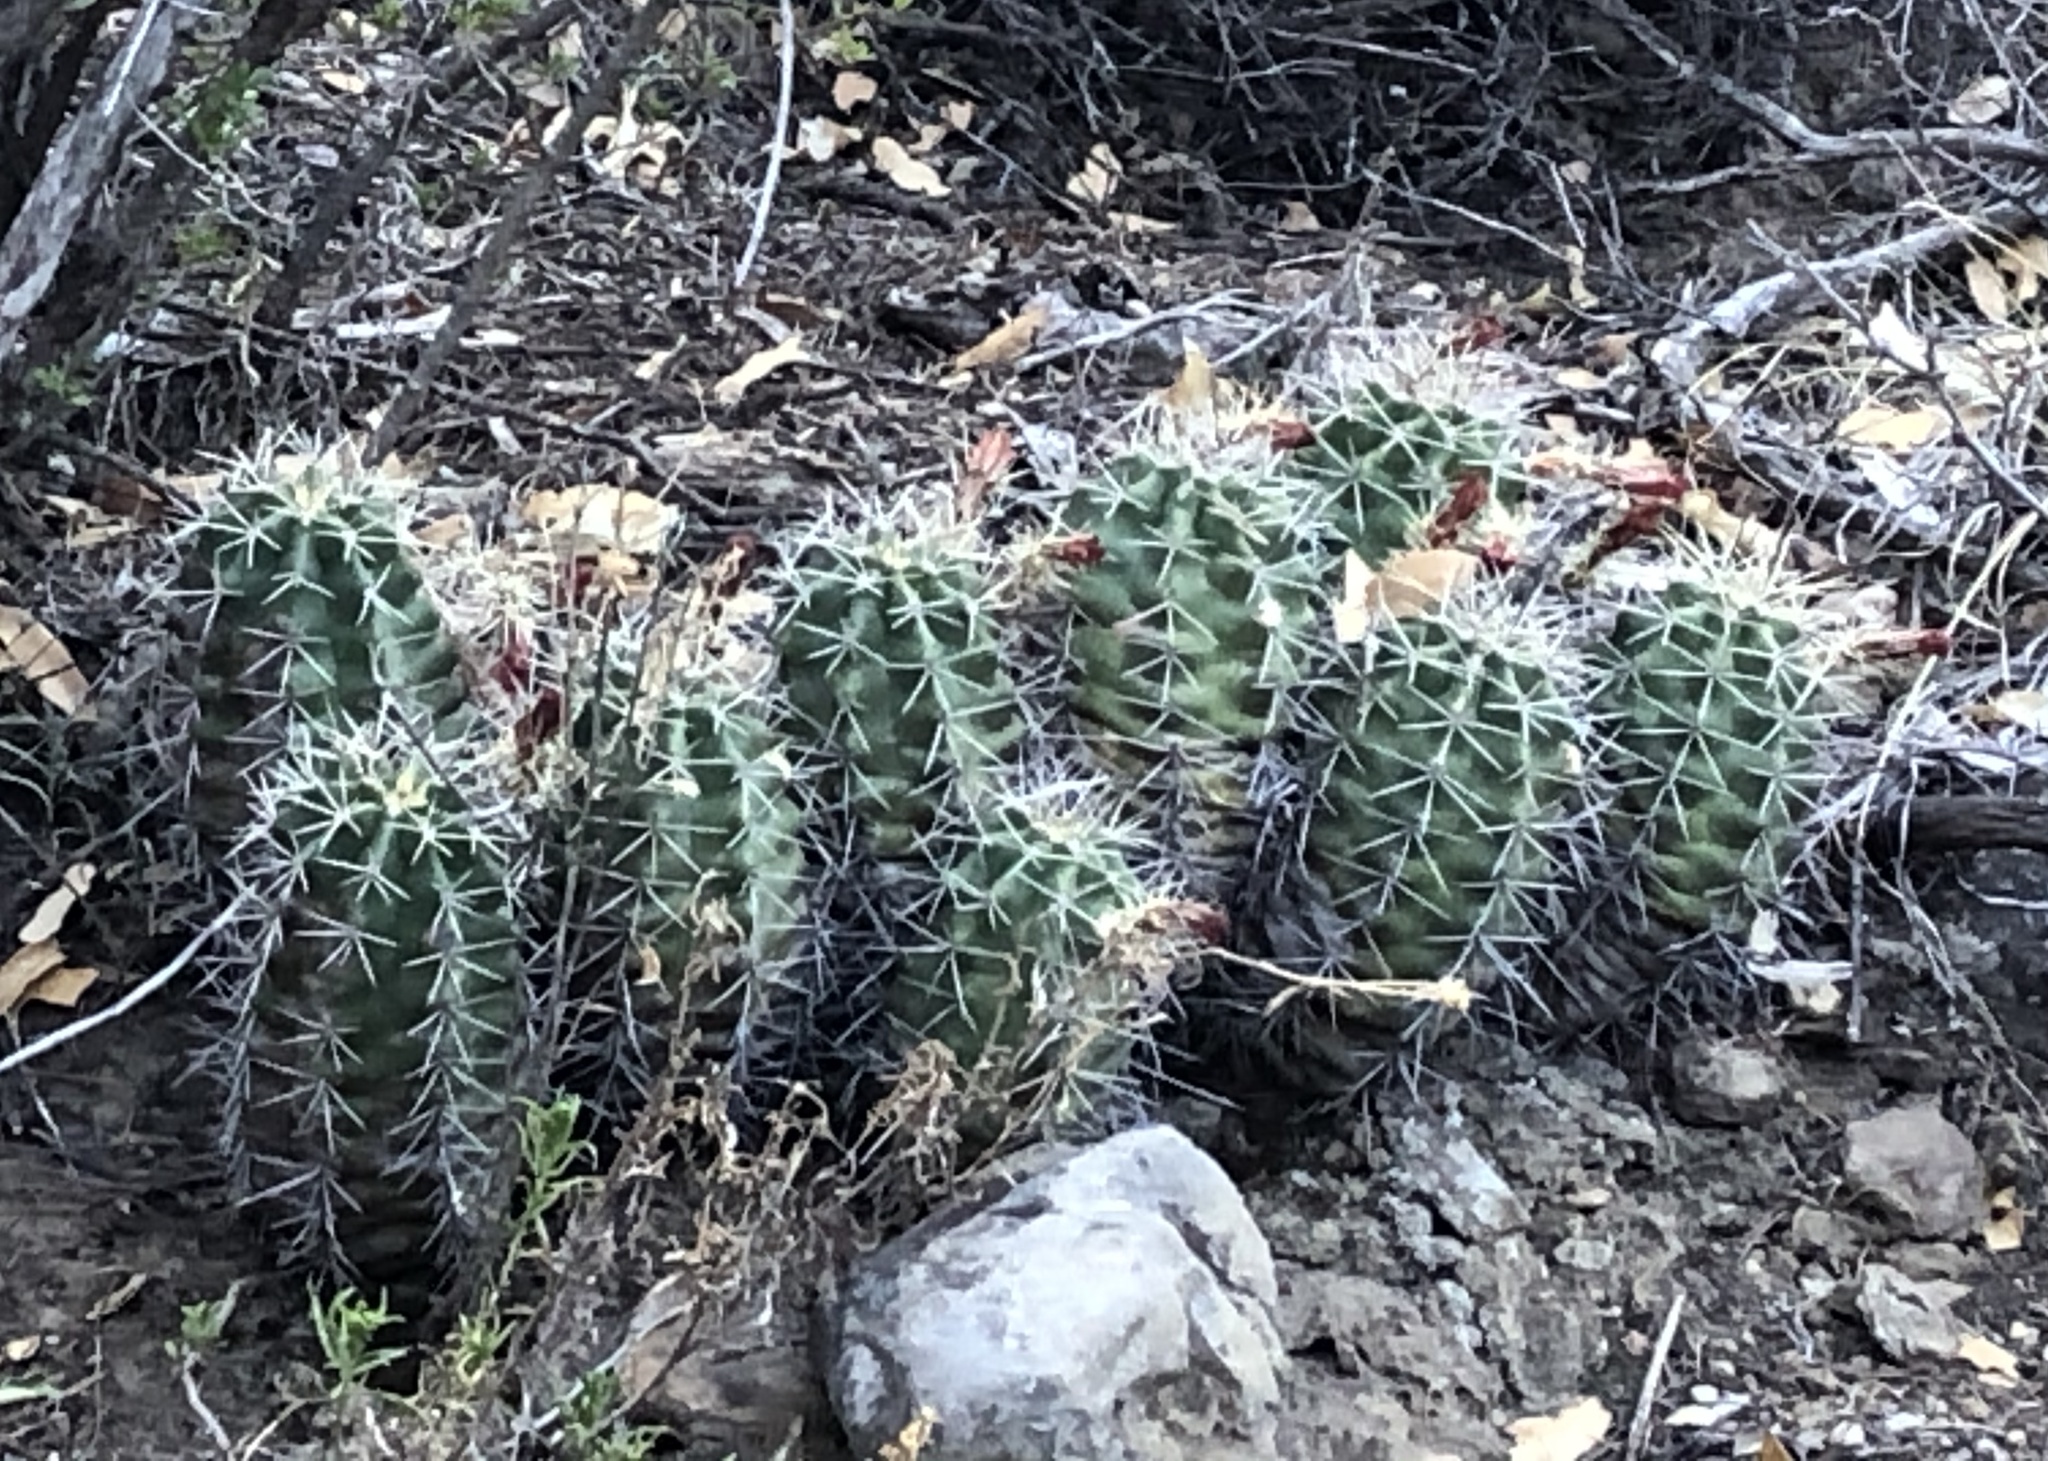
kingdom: Plantae
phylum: Tracheophyta
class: Magnoliopsida
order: Caryophyllales
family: Cactaceae
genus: Echinocereus
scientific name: Echinocereus coccineus
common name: Scarlet hedgehog cactus
